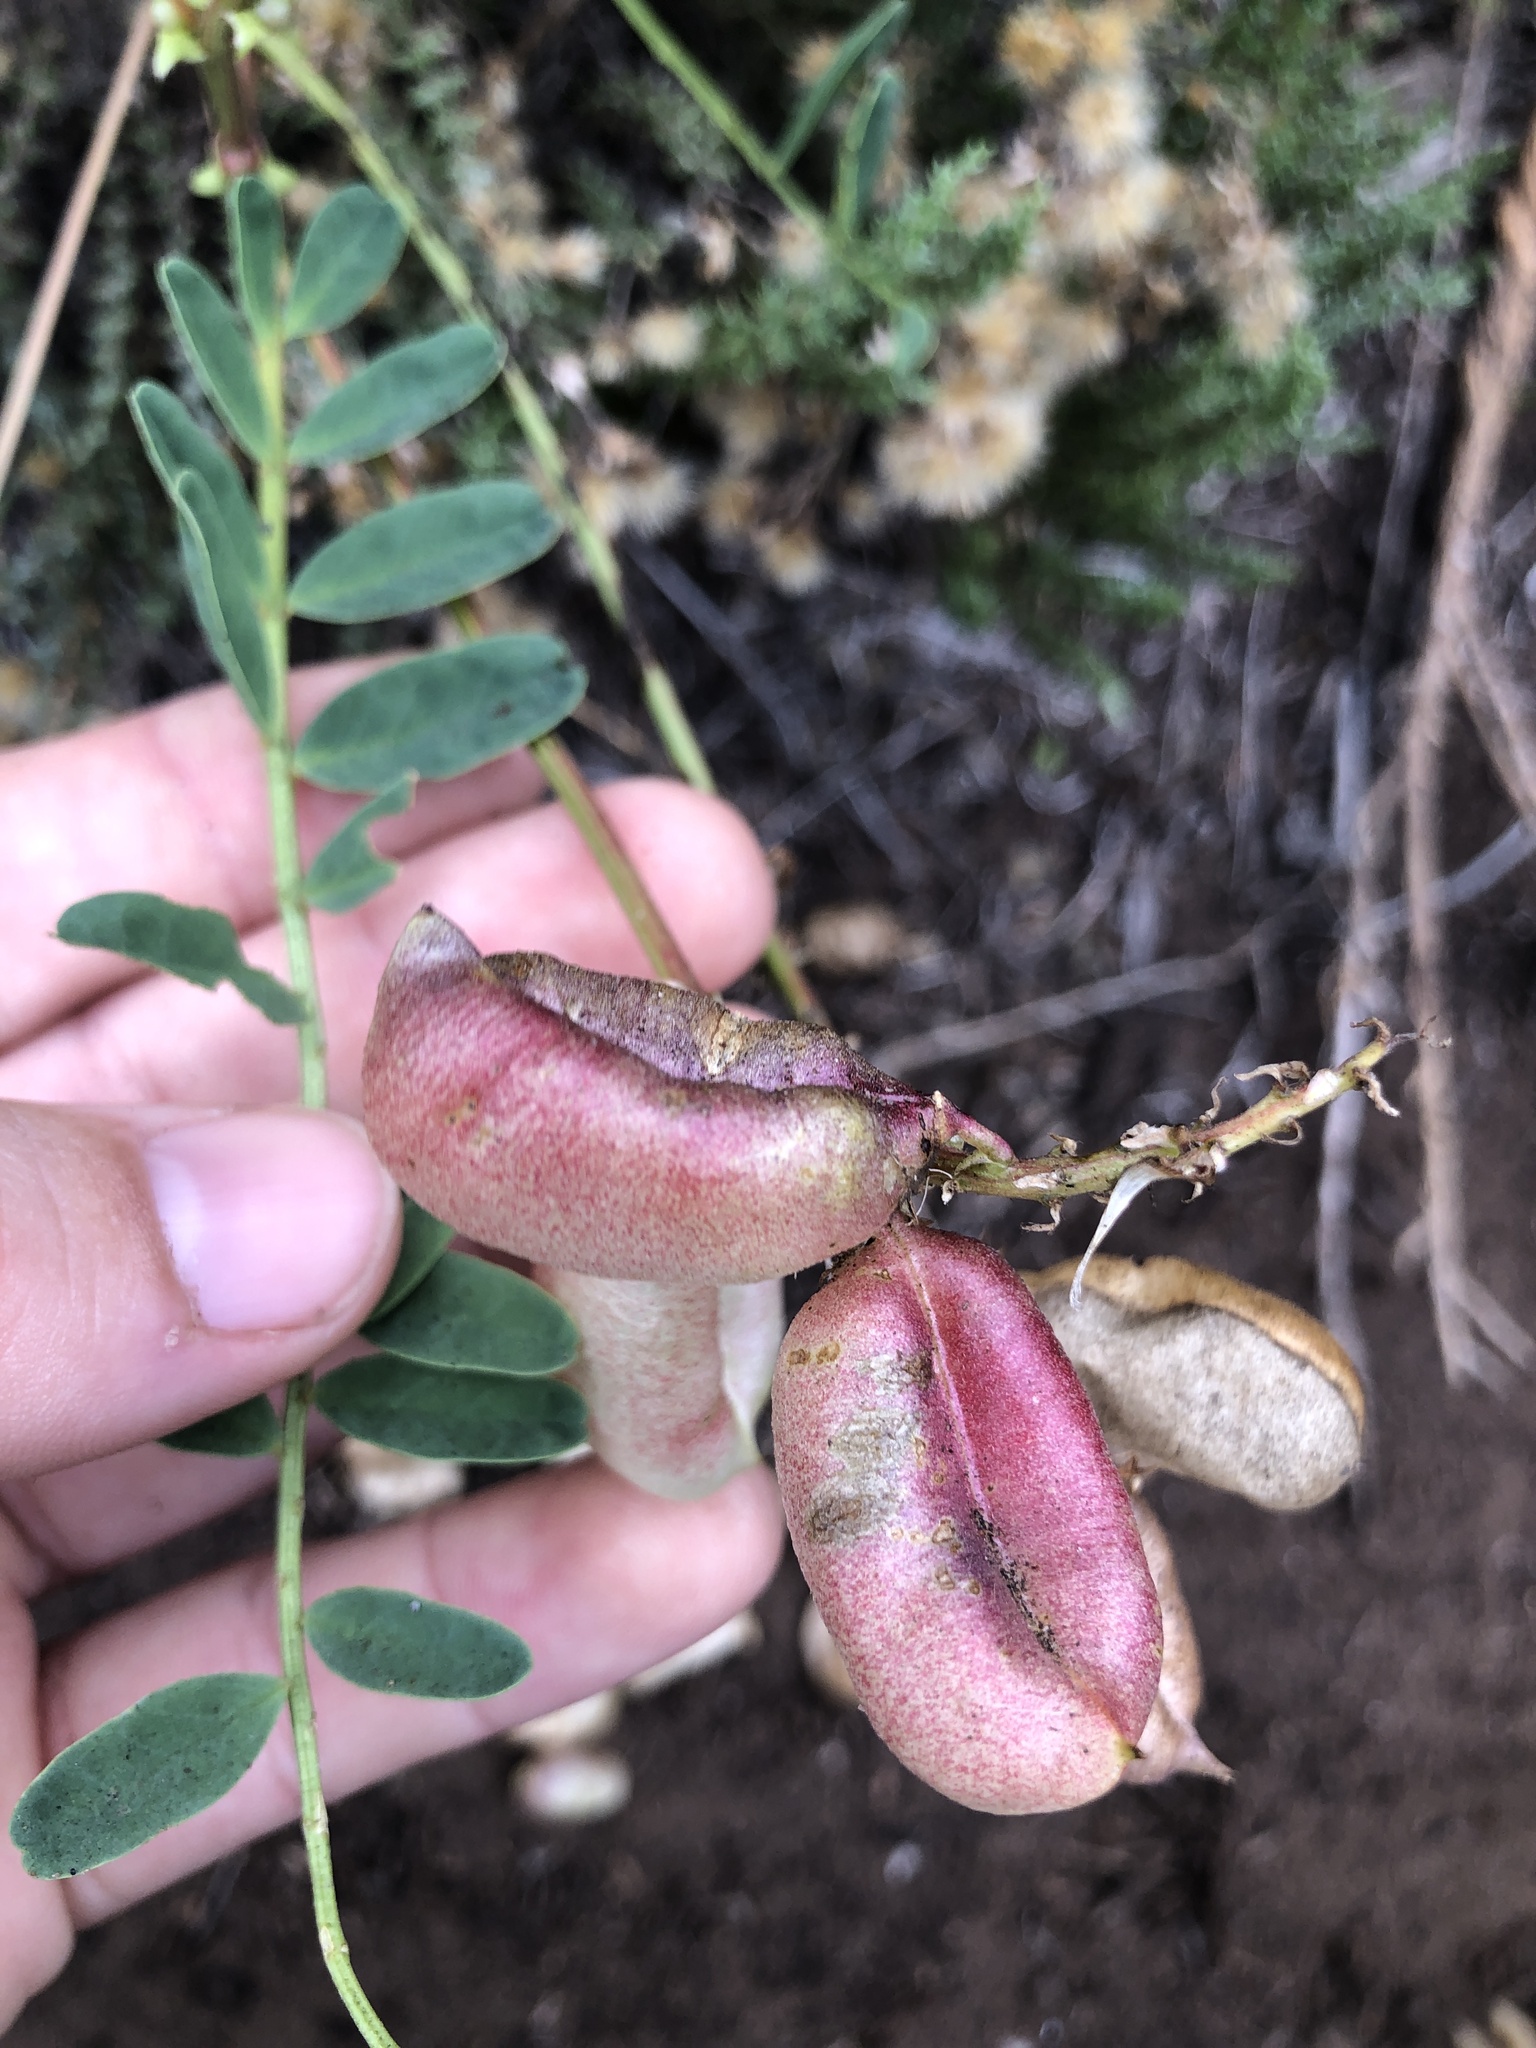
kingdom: Plantae
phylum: Tracheophyta
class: Magnoliopsida
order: Fabales
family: Fabaceae
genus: Astragalus
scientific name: Astragalus pomonensis
